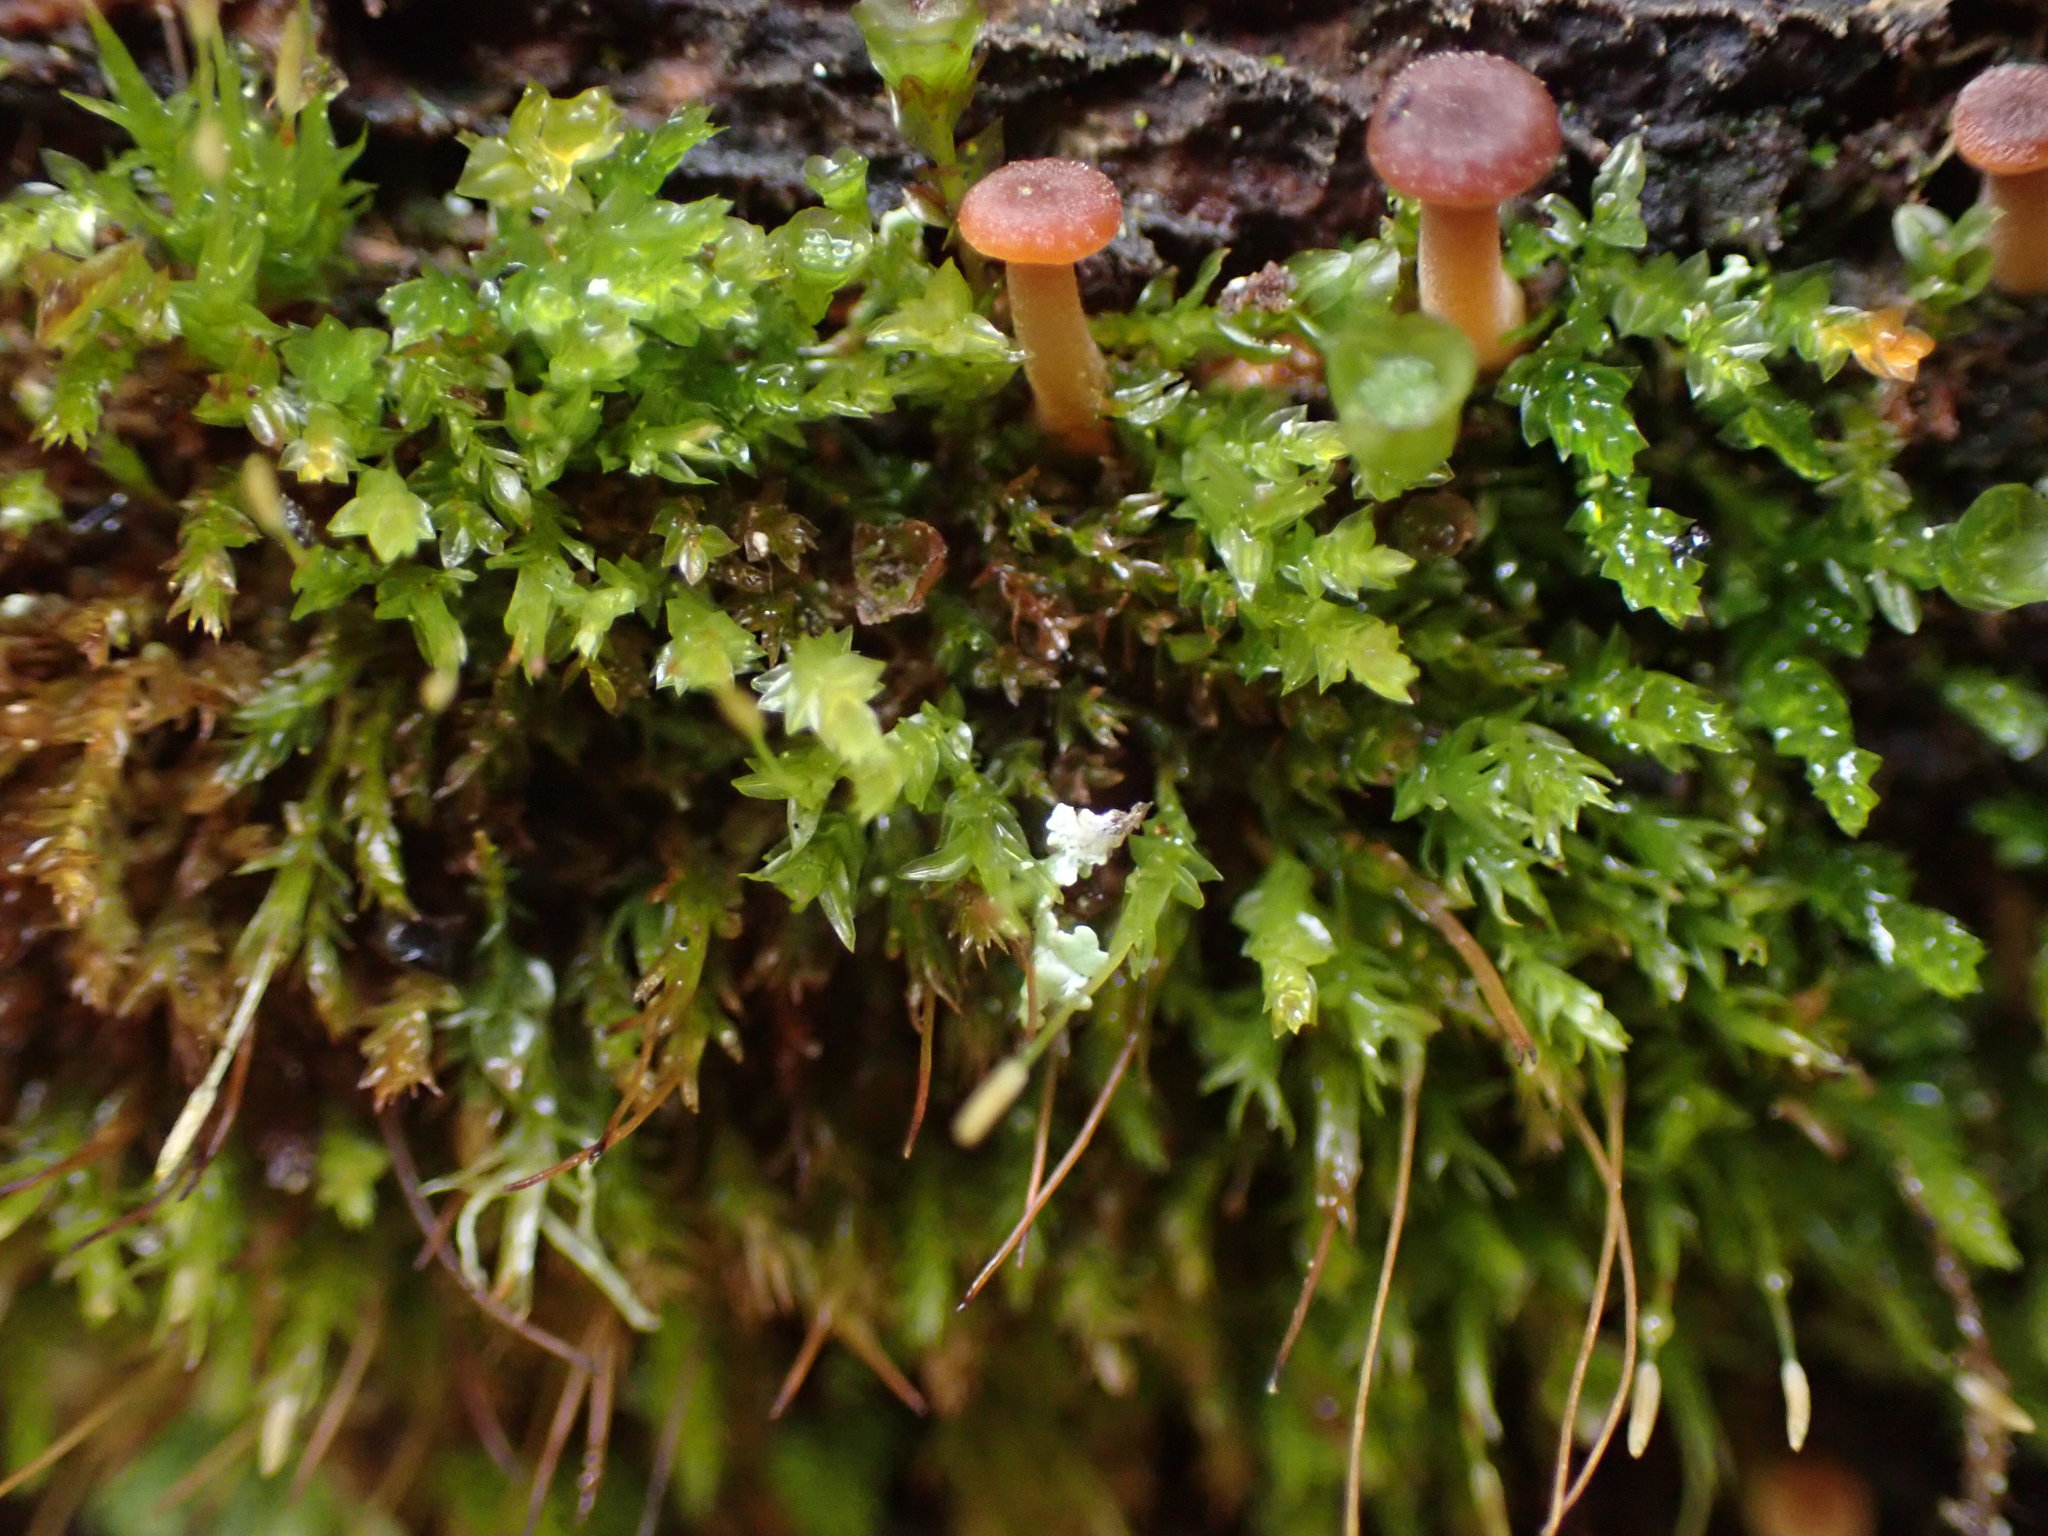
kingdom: Plantae
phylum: Bryophyta
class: Polytrichopsida
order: Tetraphidales
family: Tetraphidaceae
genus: Tetraphis
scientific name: Tetraphis pellucida
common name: Common four-toothed moss
